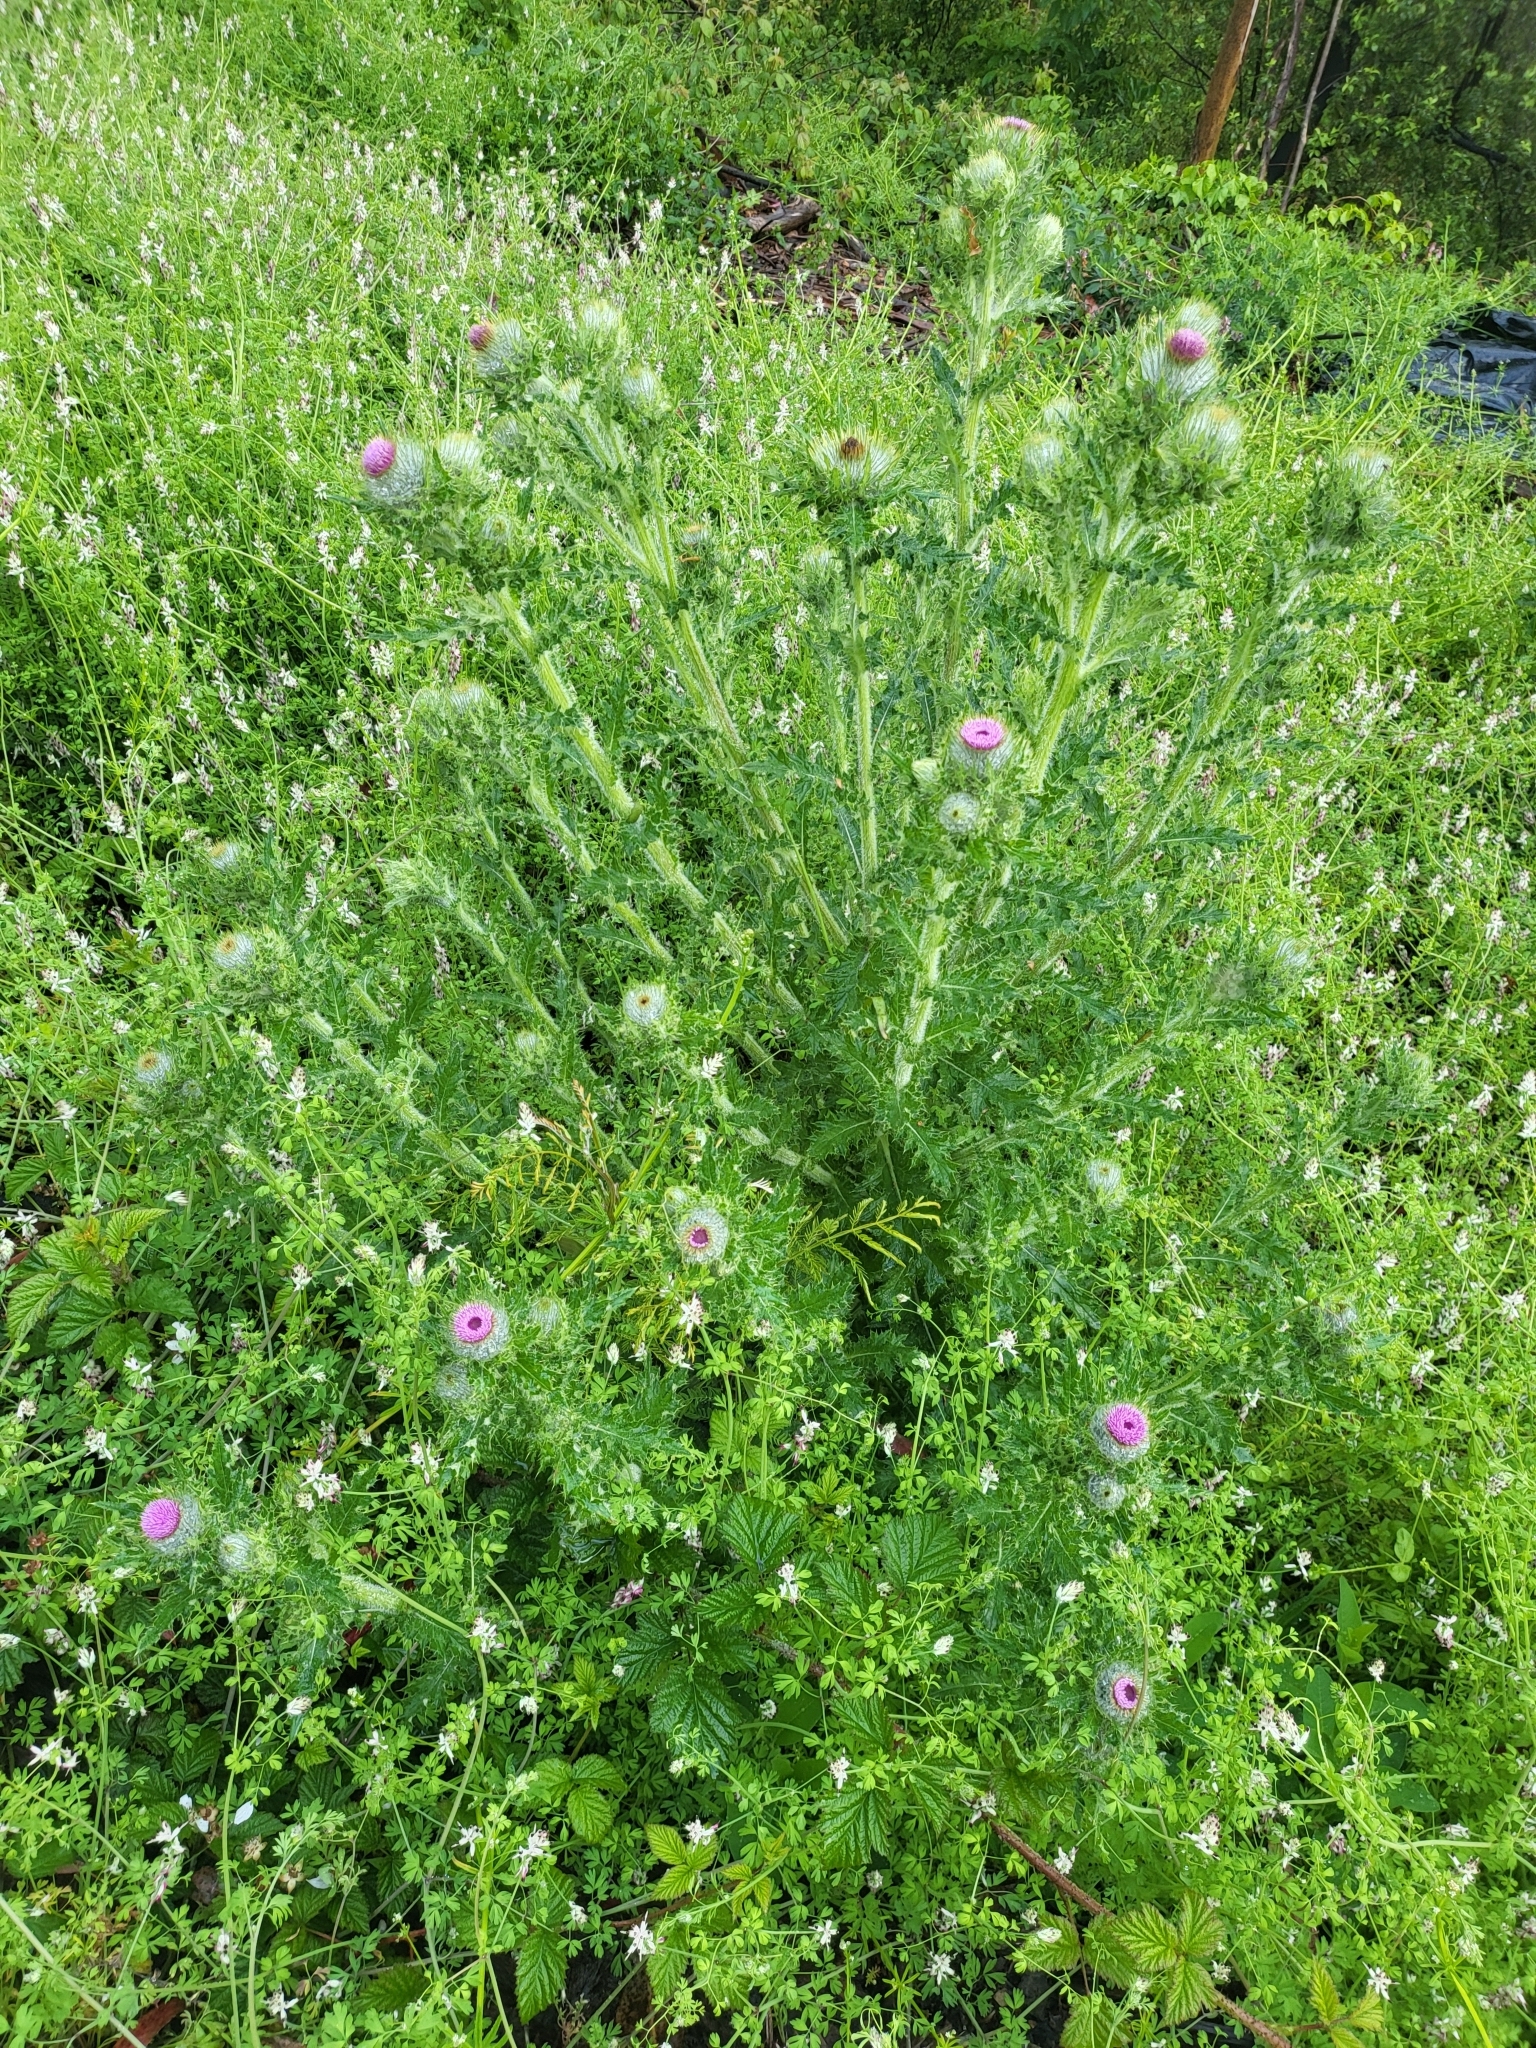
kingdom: Plantae
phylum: Tracheophyta
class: Magnoliopsida
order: Asterales
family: Asteraceae
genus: Cirsium
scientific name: Cirsium brevistylum
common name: Indian thistle
